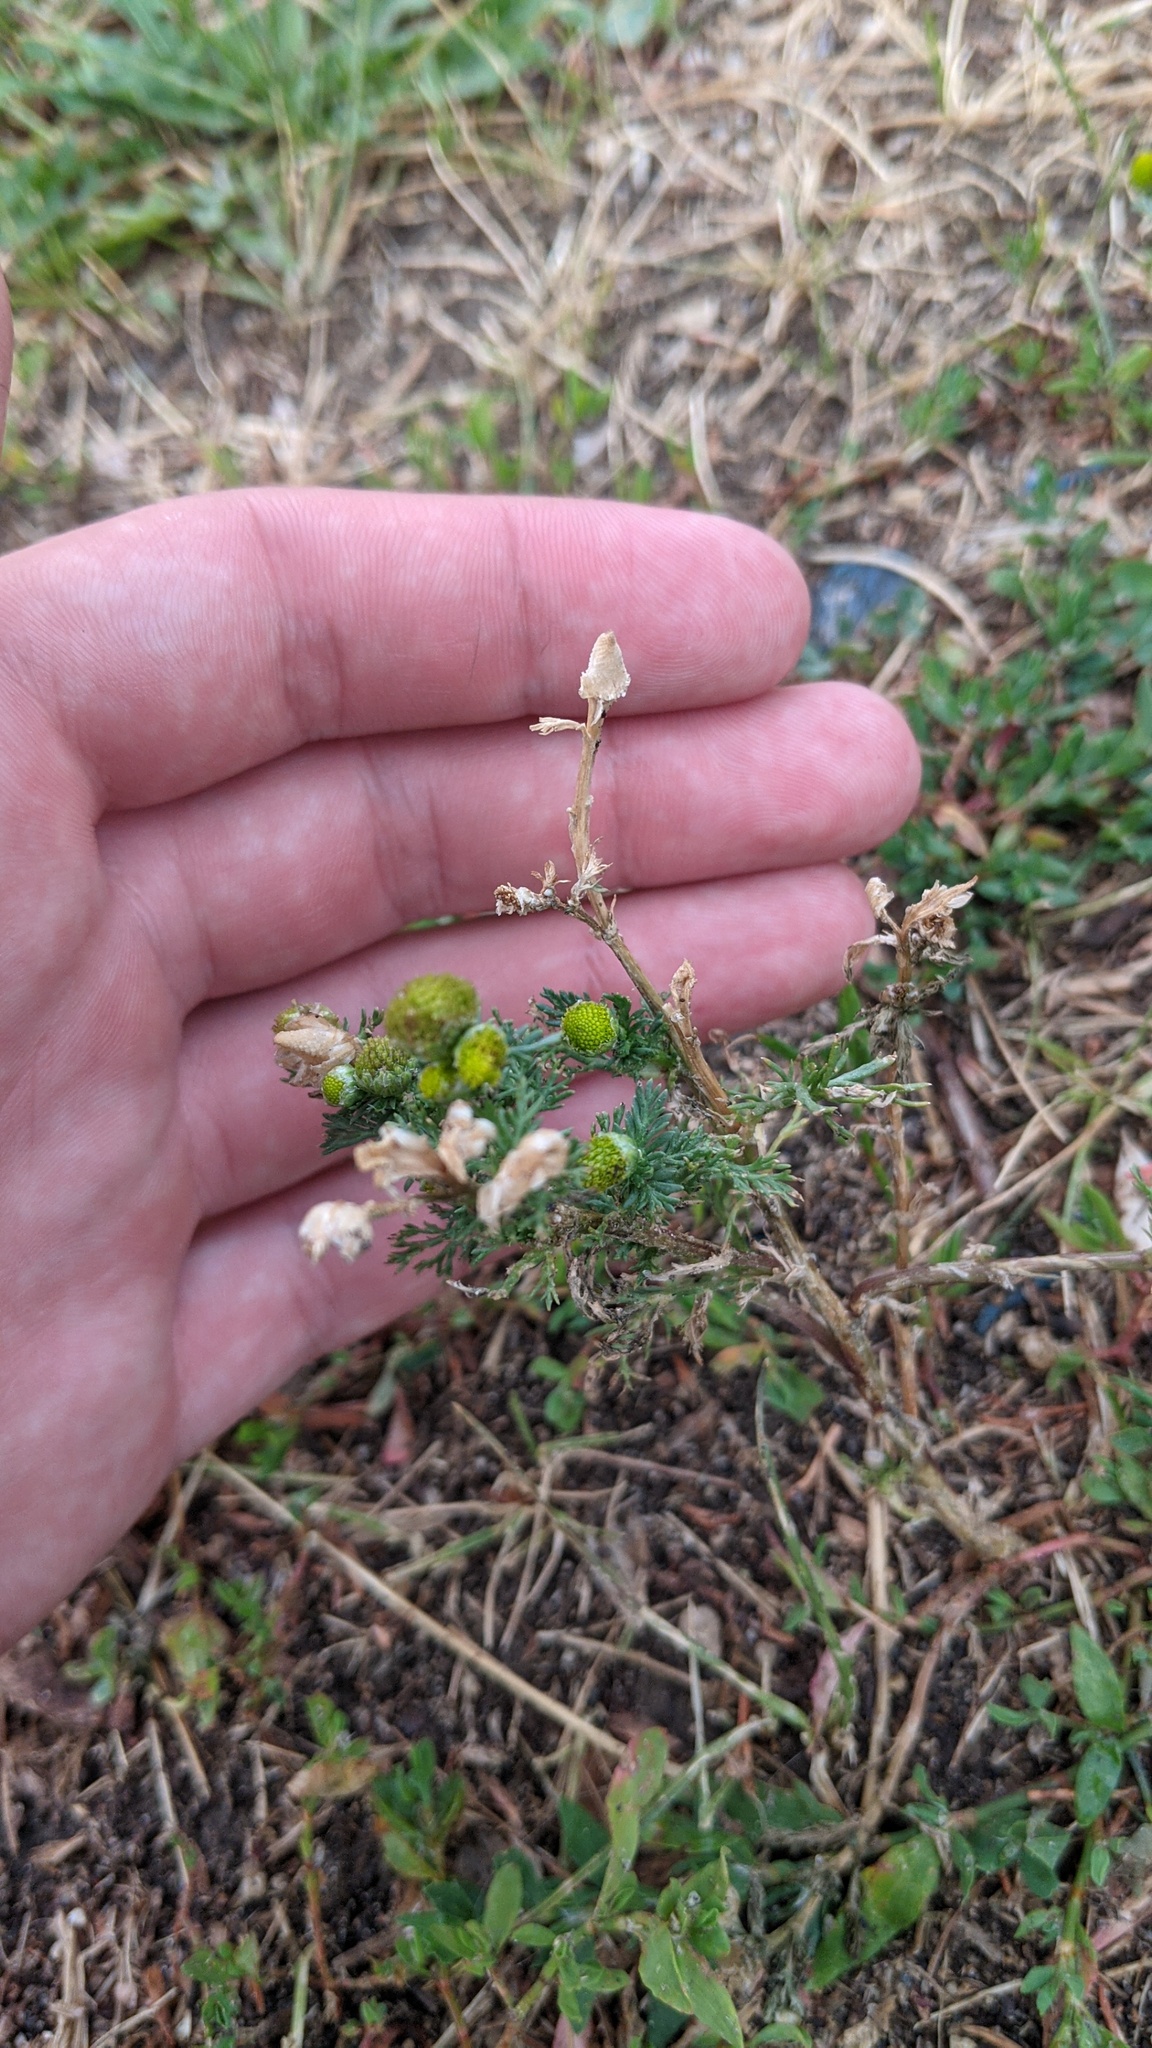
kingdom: Plantae
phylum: Tracheophyta
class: Magnoliopsida
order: Asterales
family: Asteraceae
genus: Matricaria
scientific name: Matricaria discoidea
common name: Disc mayweed
